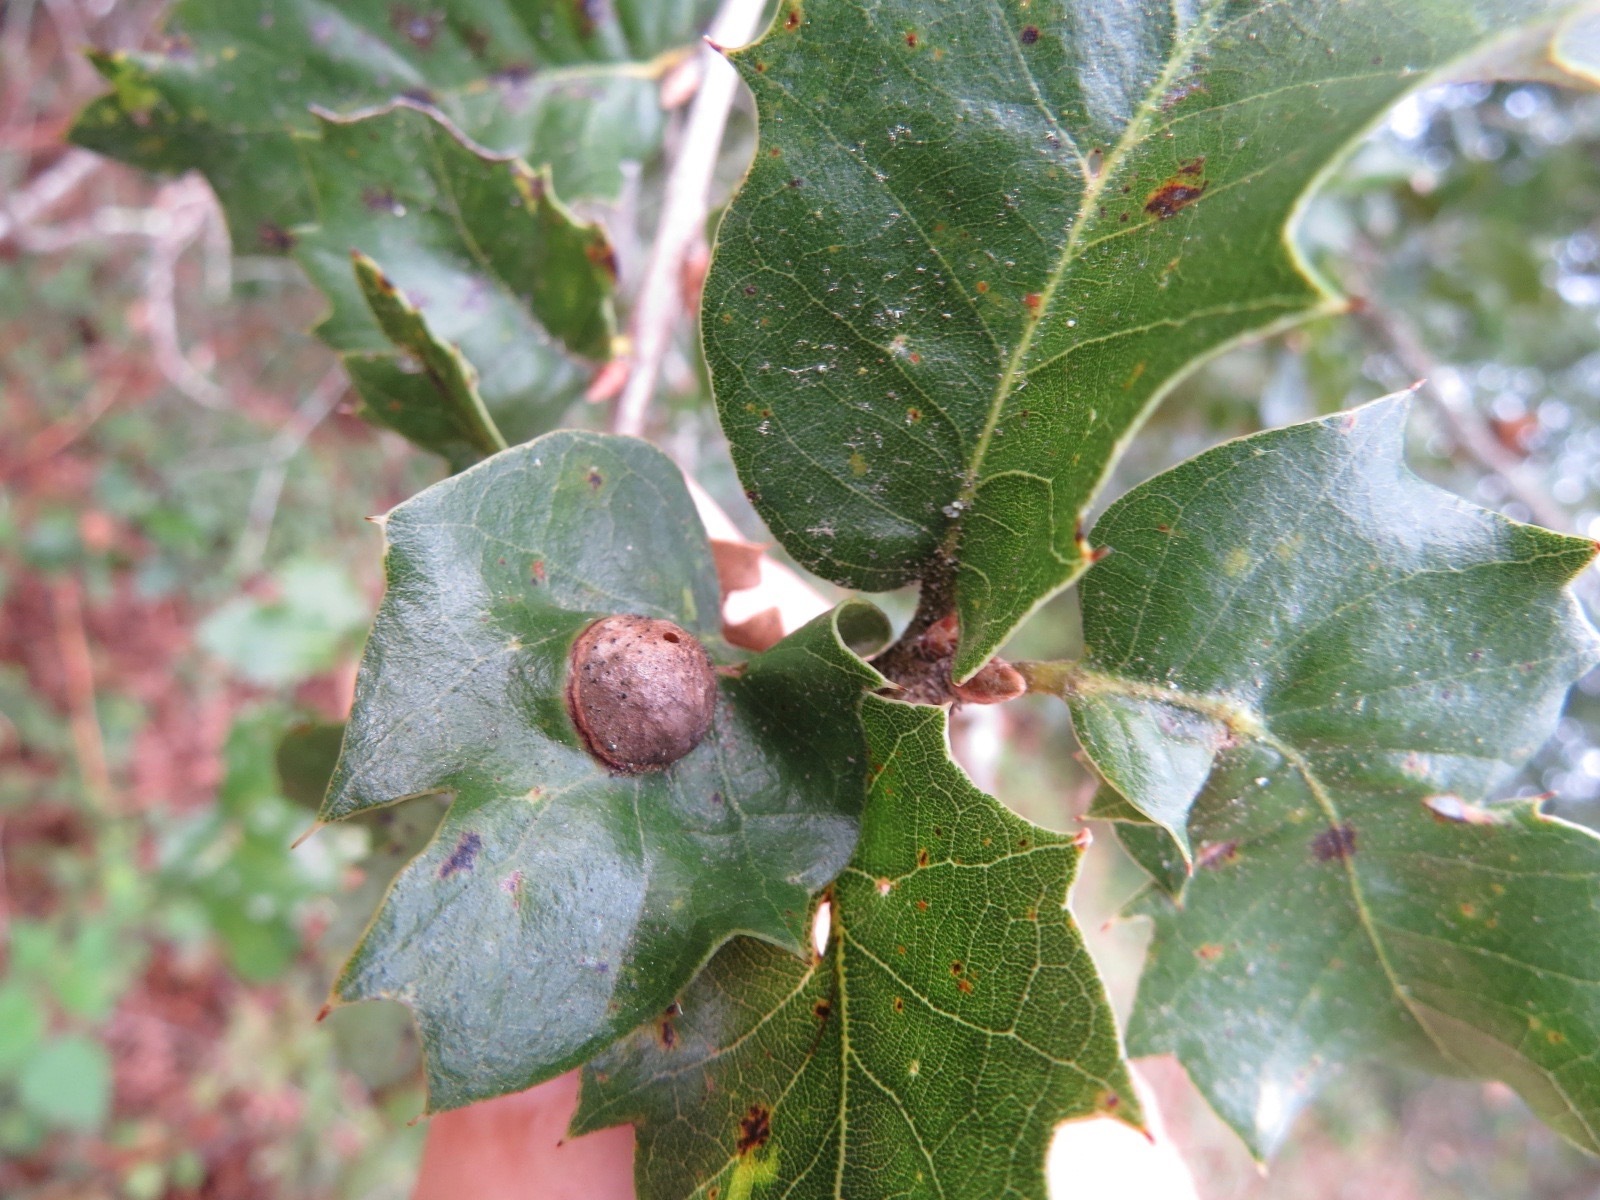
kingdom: Animalia
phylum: Arthropoda
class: Insecta
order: Hymenoptera
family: Cynipidae
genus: Heteroecus
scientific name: Heteroecus
